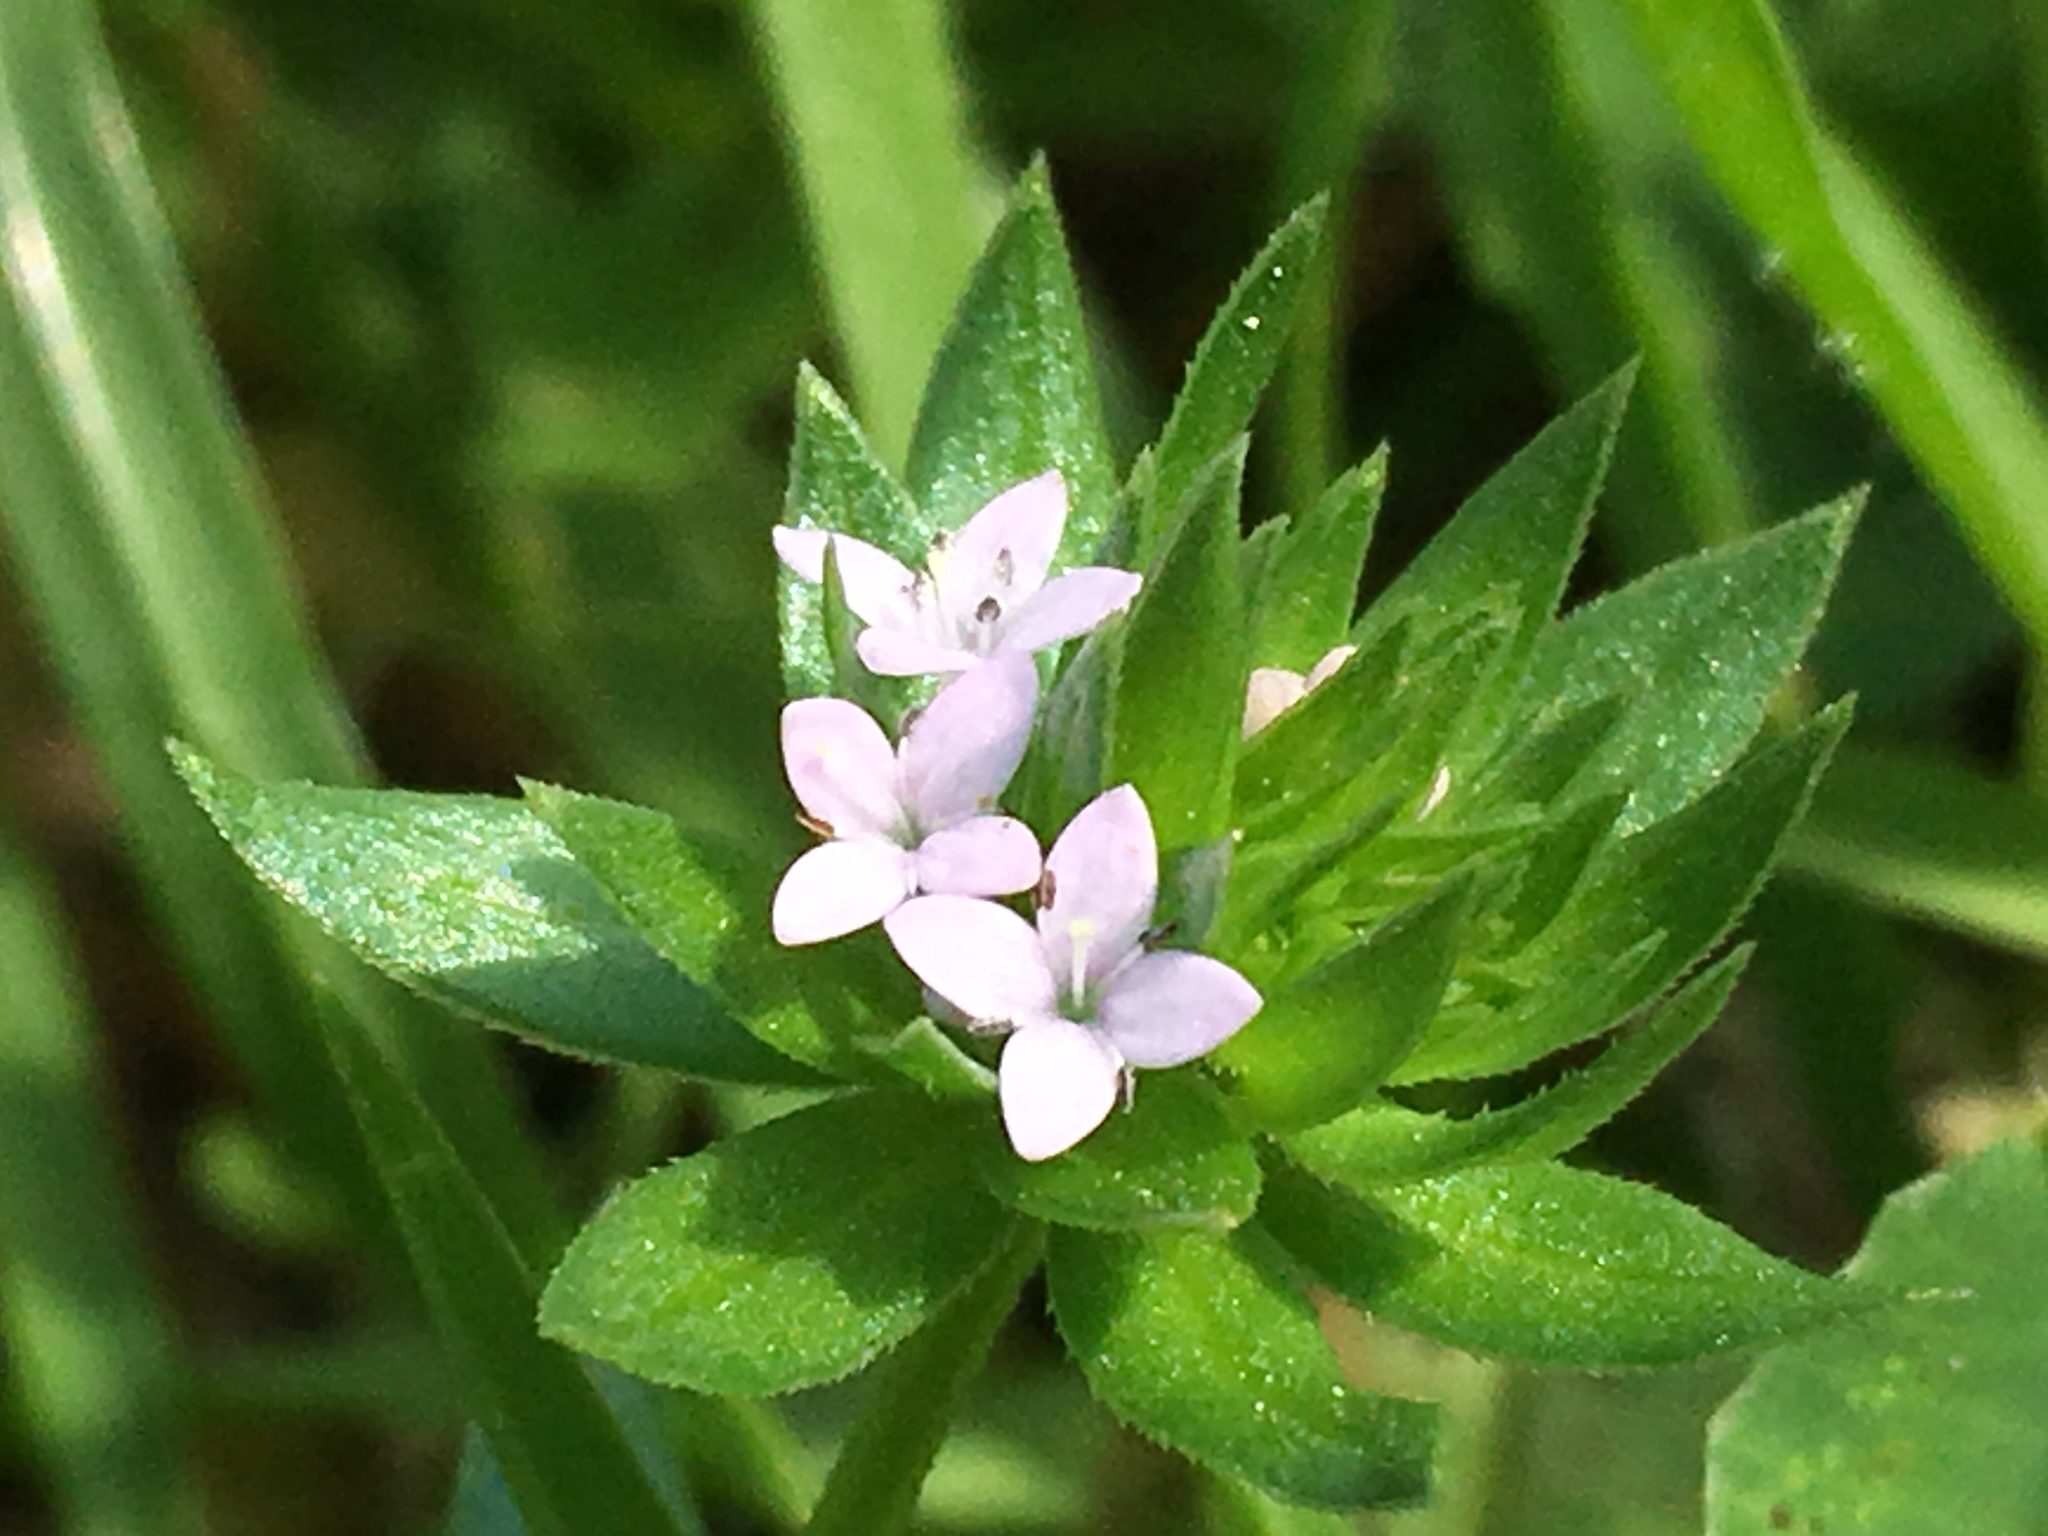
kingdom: Plantae
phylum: Tracheophyta
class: Magnoliopsida
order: Gentianales
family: Rubiaceae
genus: Sherardia
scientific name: Sherardia arvensis
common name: Field madder
